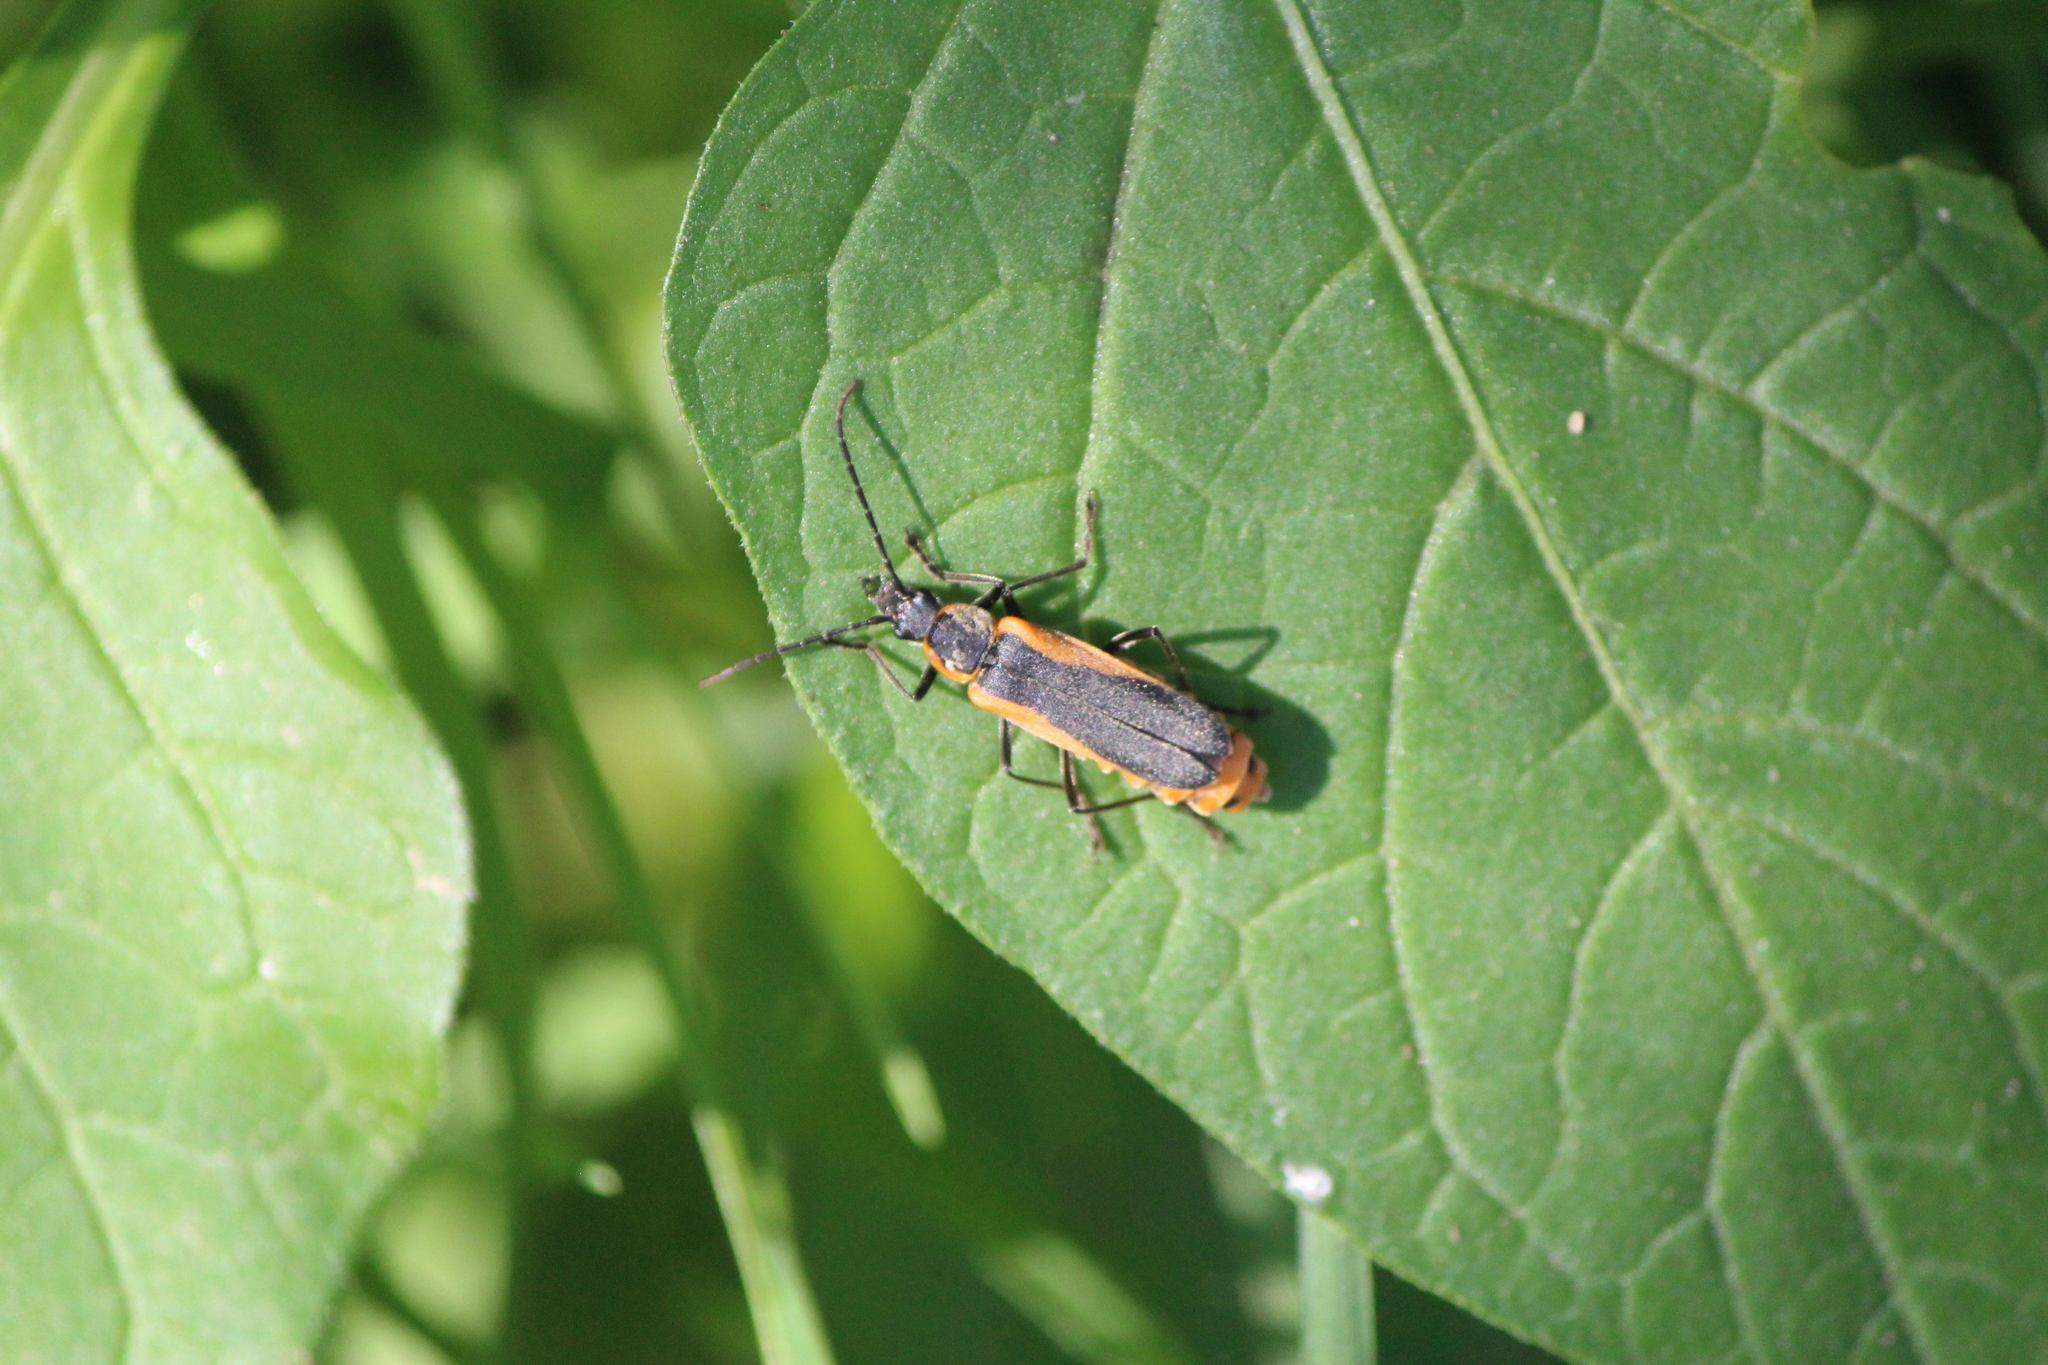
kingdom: Animalia
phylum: Arthropoda
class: Insecta
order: Coleoptera
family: Cantharidae
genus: Chauliognathus
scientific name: Chauliognathus limbicollis
